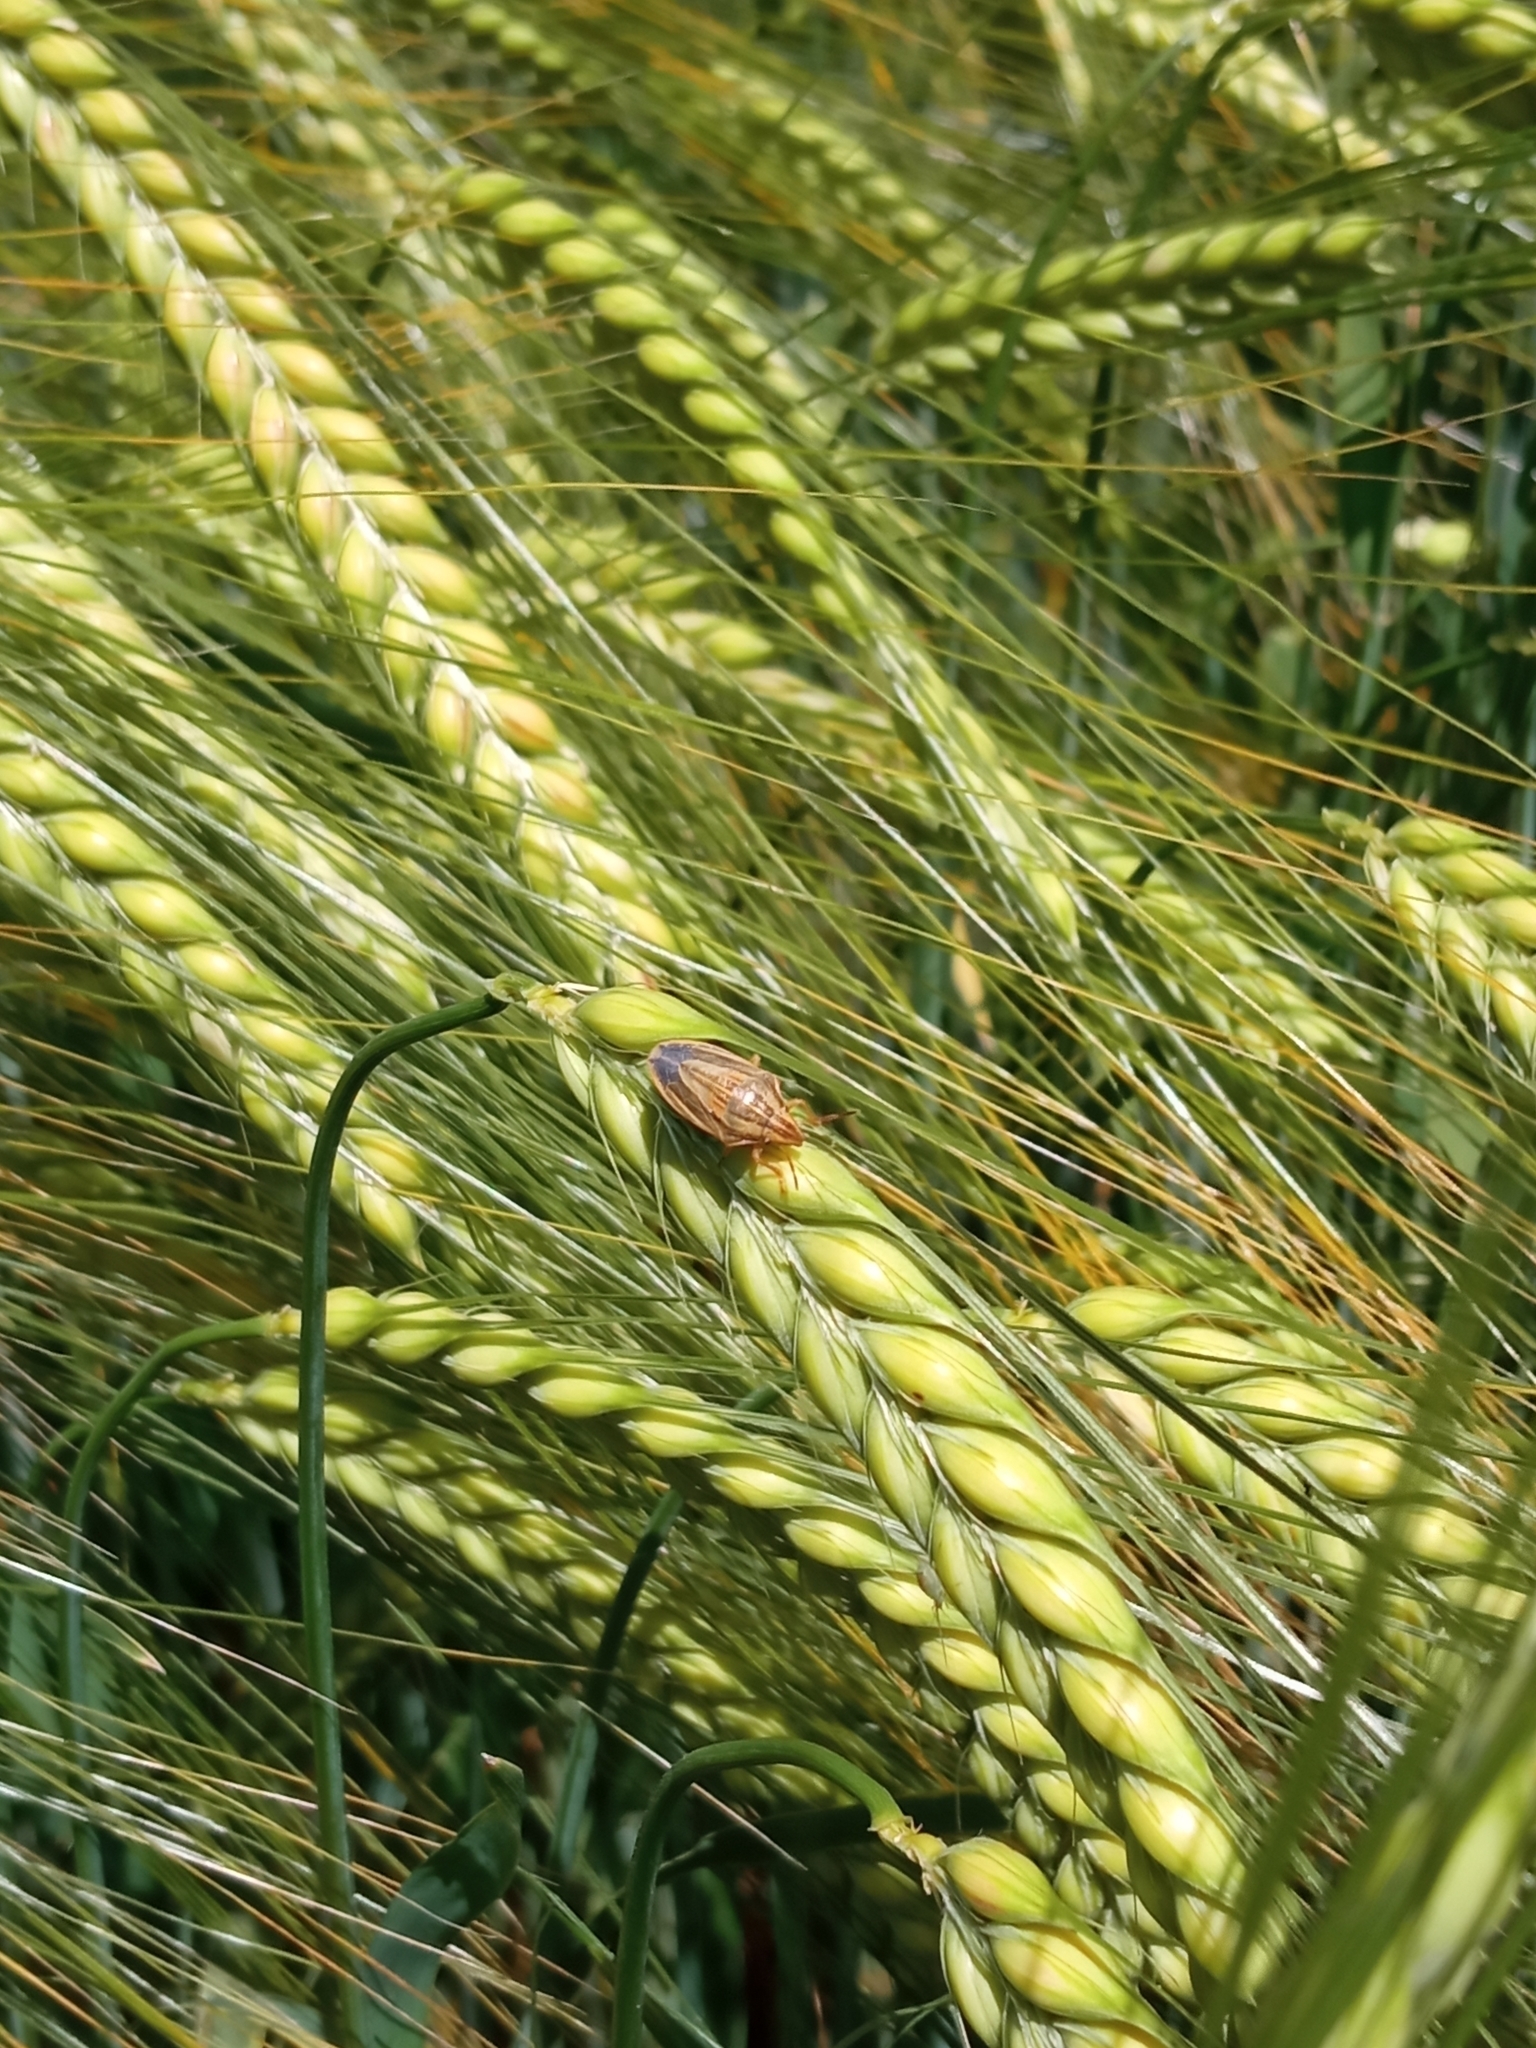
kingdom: Animalia
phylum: Arthropoda
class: Insecta
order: Hemiptera
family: Pentatomidae
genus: Aelia
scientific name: Aelia acuminata
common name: Bishop's mitre
